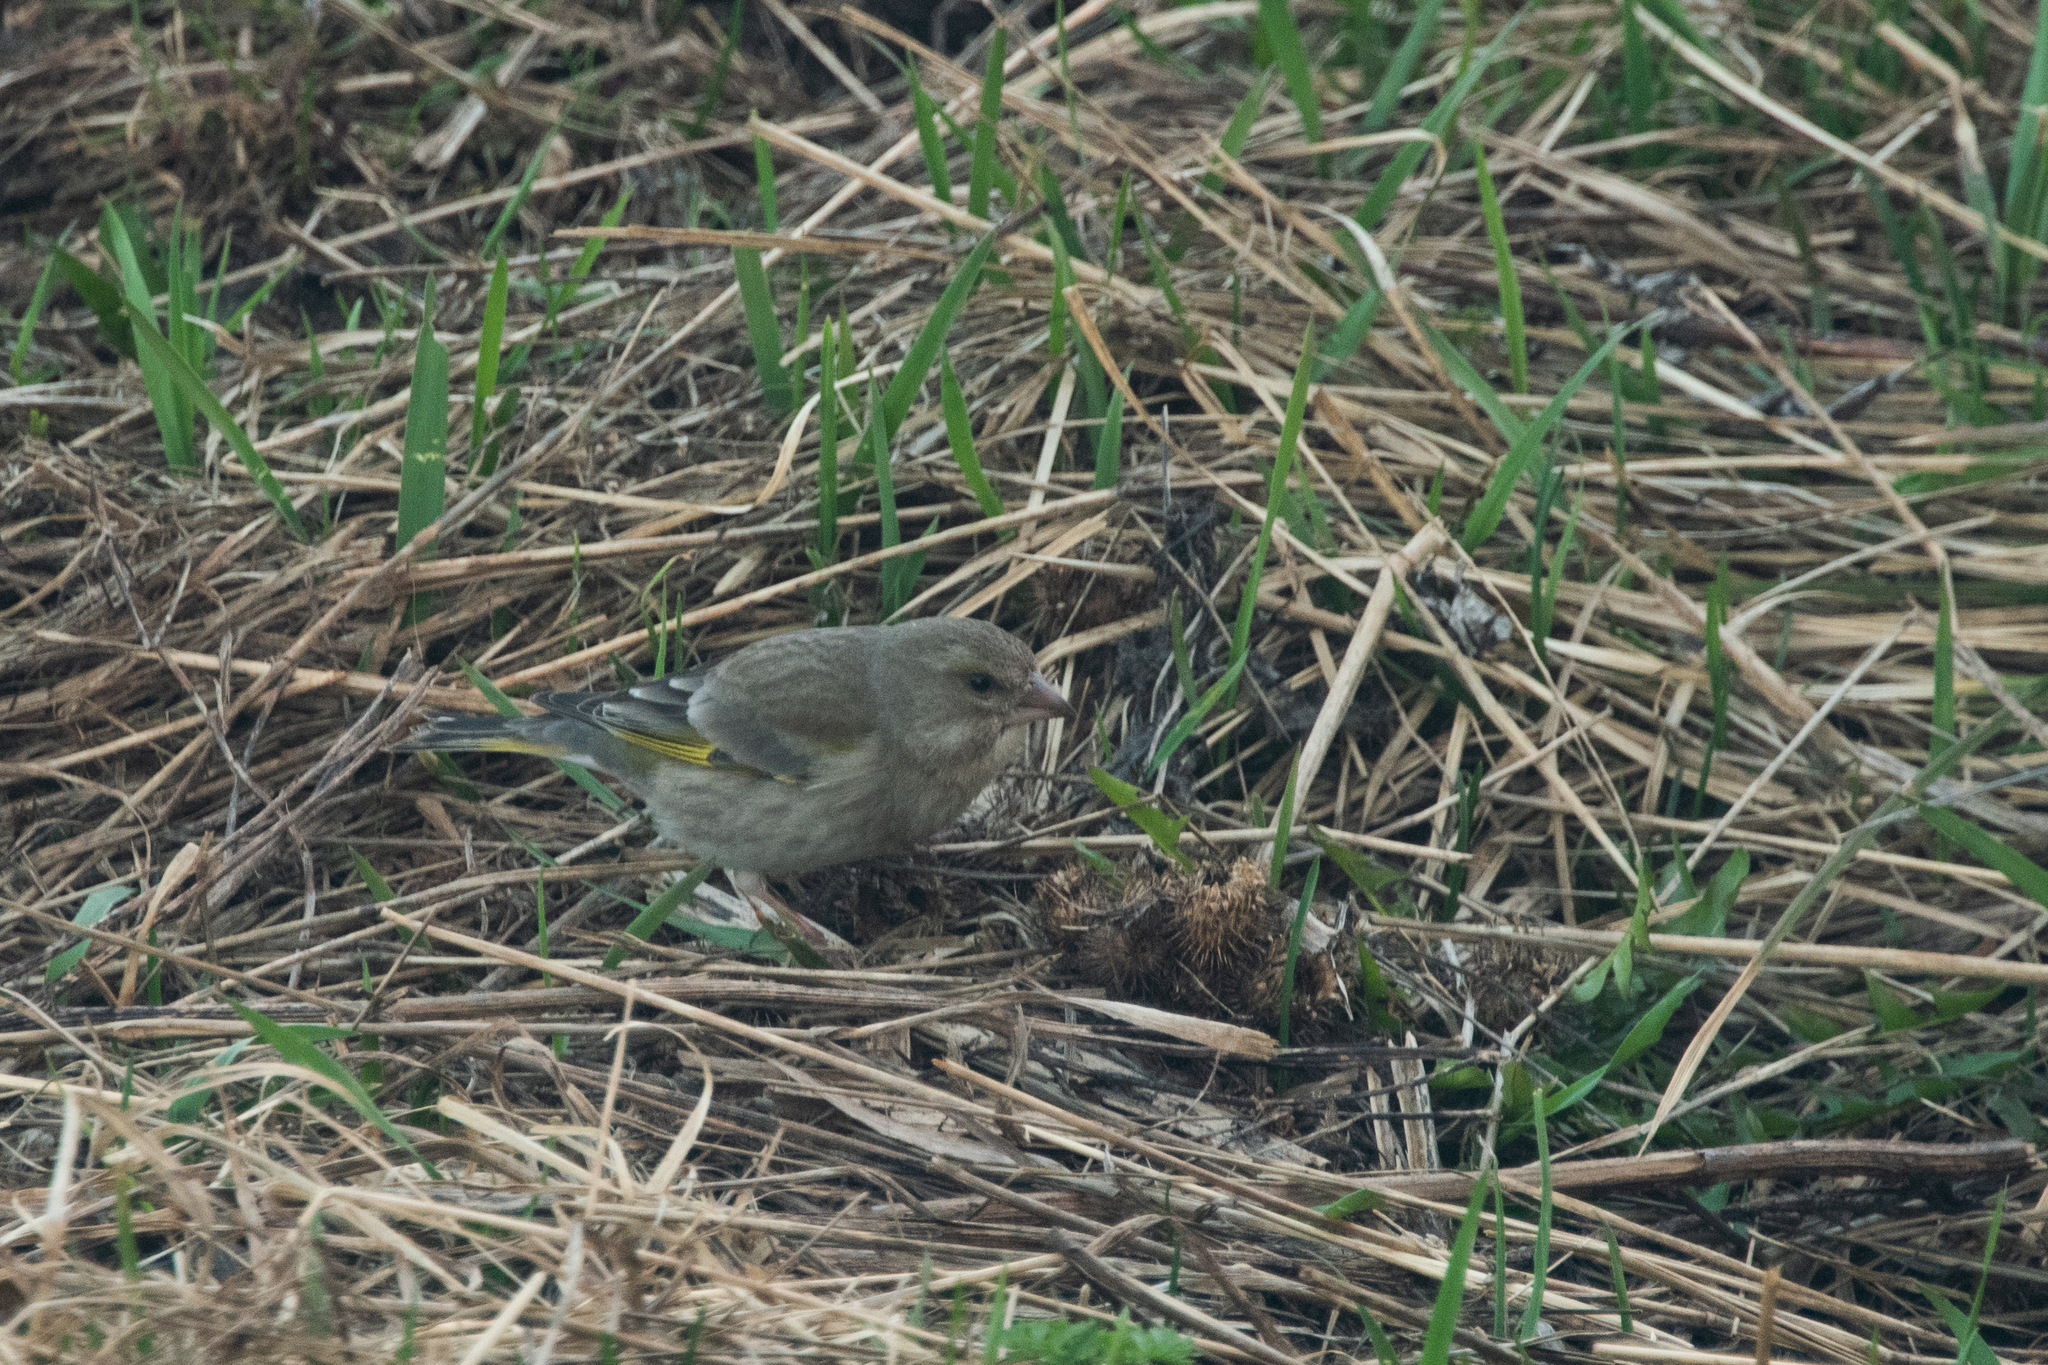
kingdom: Plantae
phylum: Tracheophyta
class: Liliopsida
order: Poales
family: Poaceae
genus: Chloris
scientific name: Chloris chloris
